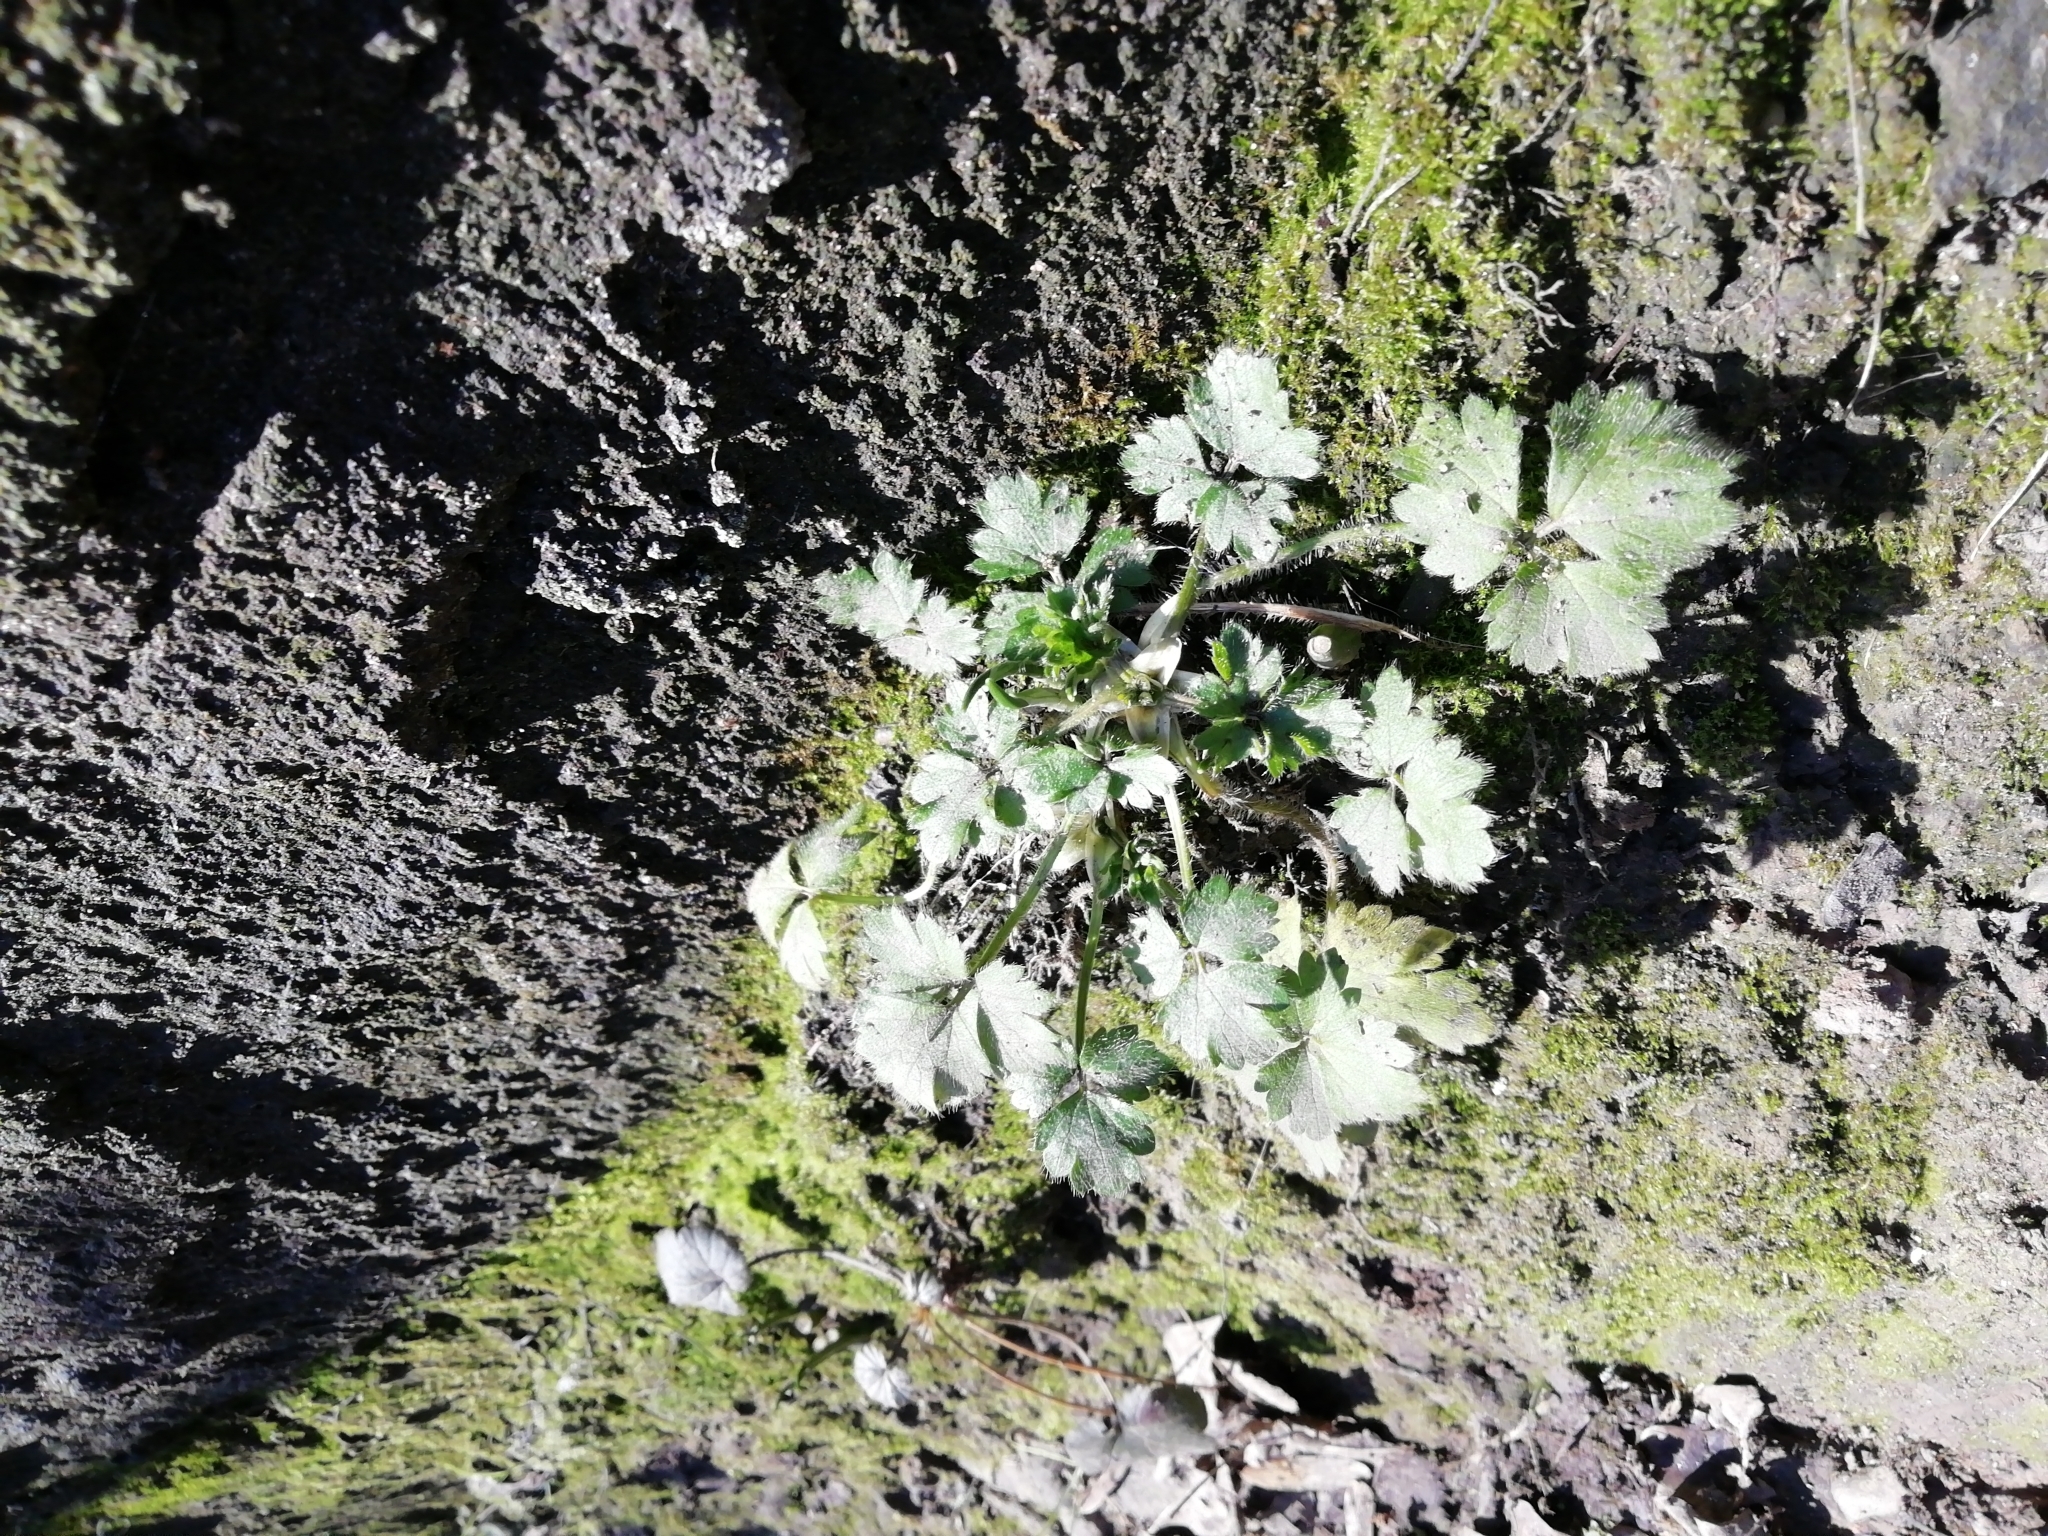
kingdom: Plantae
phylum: Tracheophyta
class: Magnoliopsida
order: Ranunculales
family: Ranunculaceae
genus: Ranunculus
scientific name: Ranunculus repens
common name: Creeping buttercup
